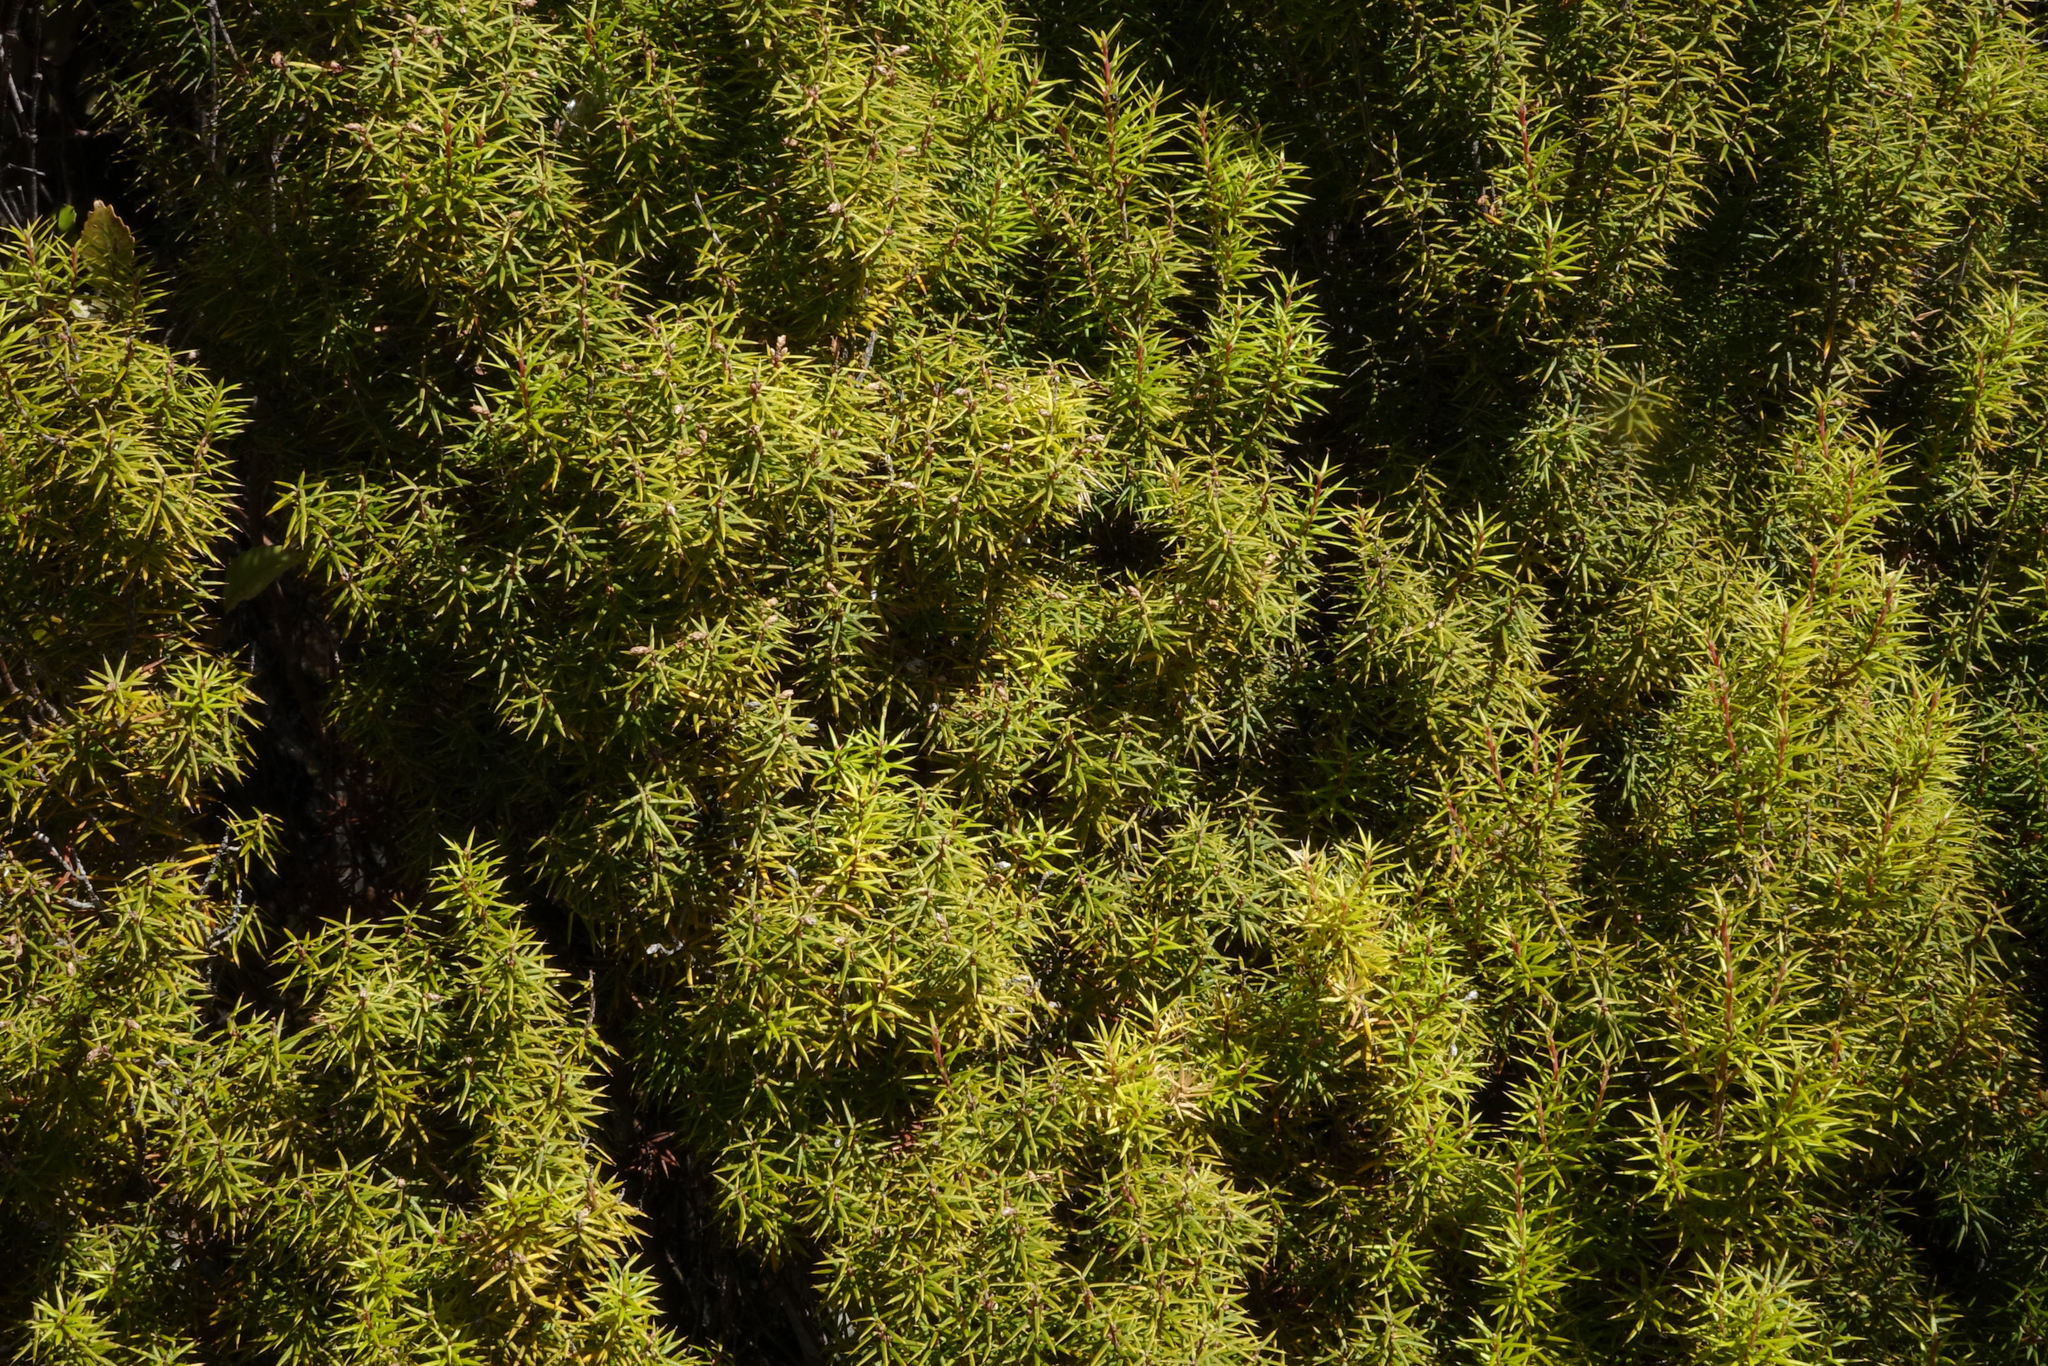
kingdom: Plantae
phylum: Tracheophyta
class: Magnoliopsida
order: Ericales
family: Ericaceae
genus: Leptecophylla
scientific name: Leptecophylla juniperina
